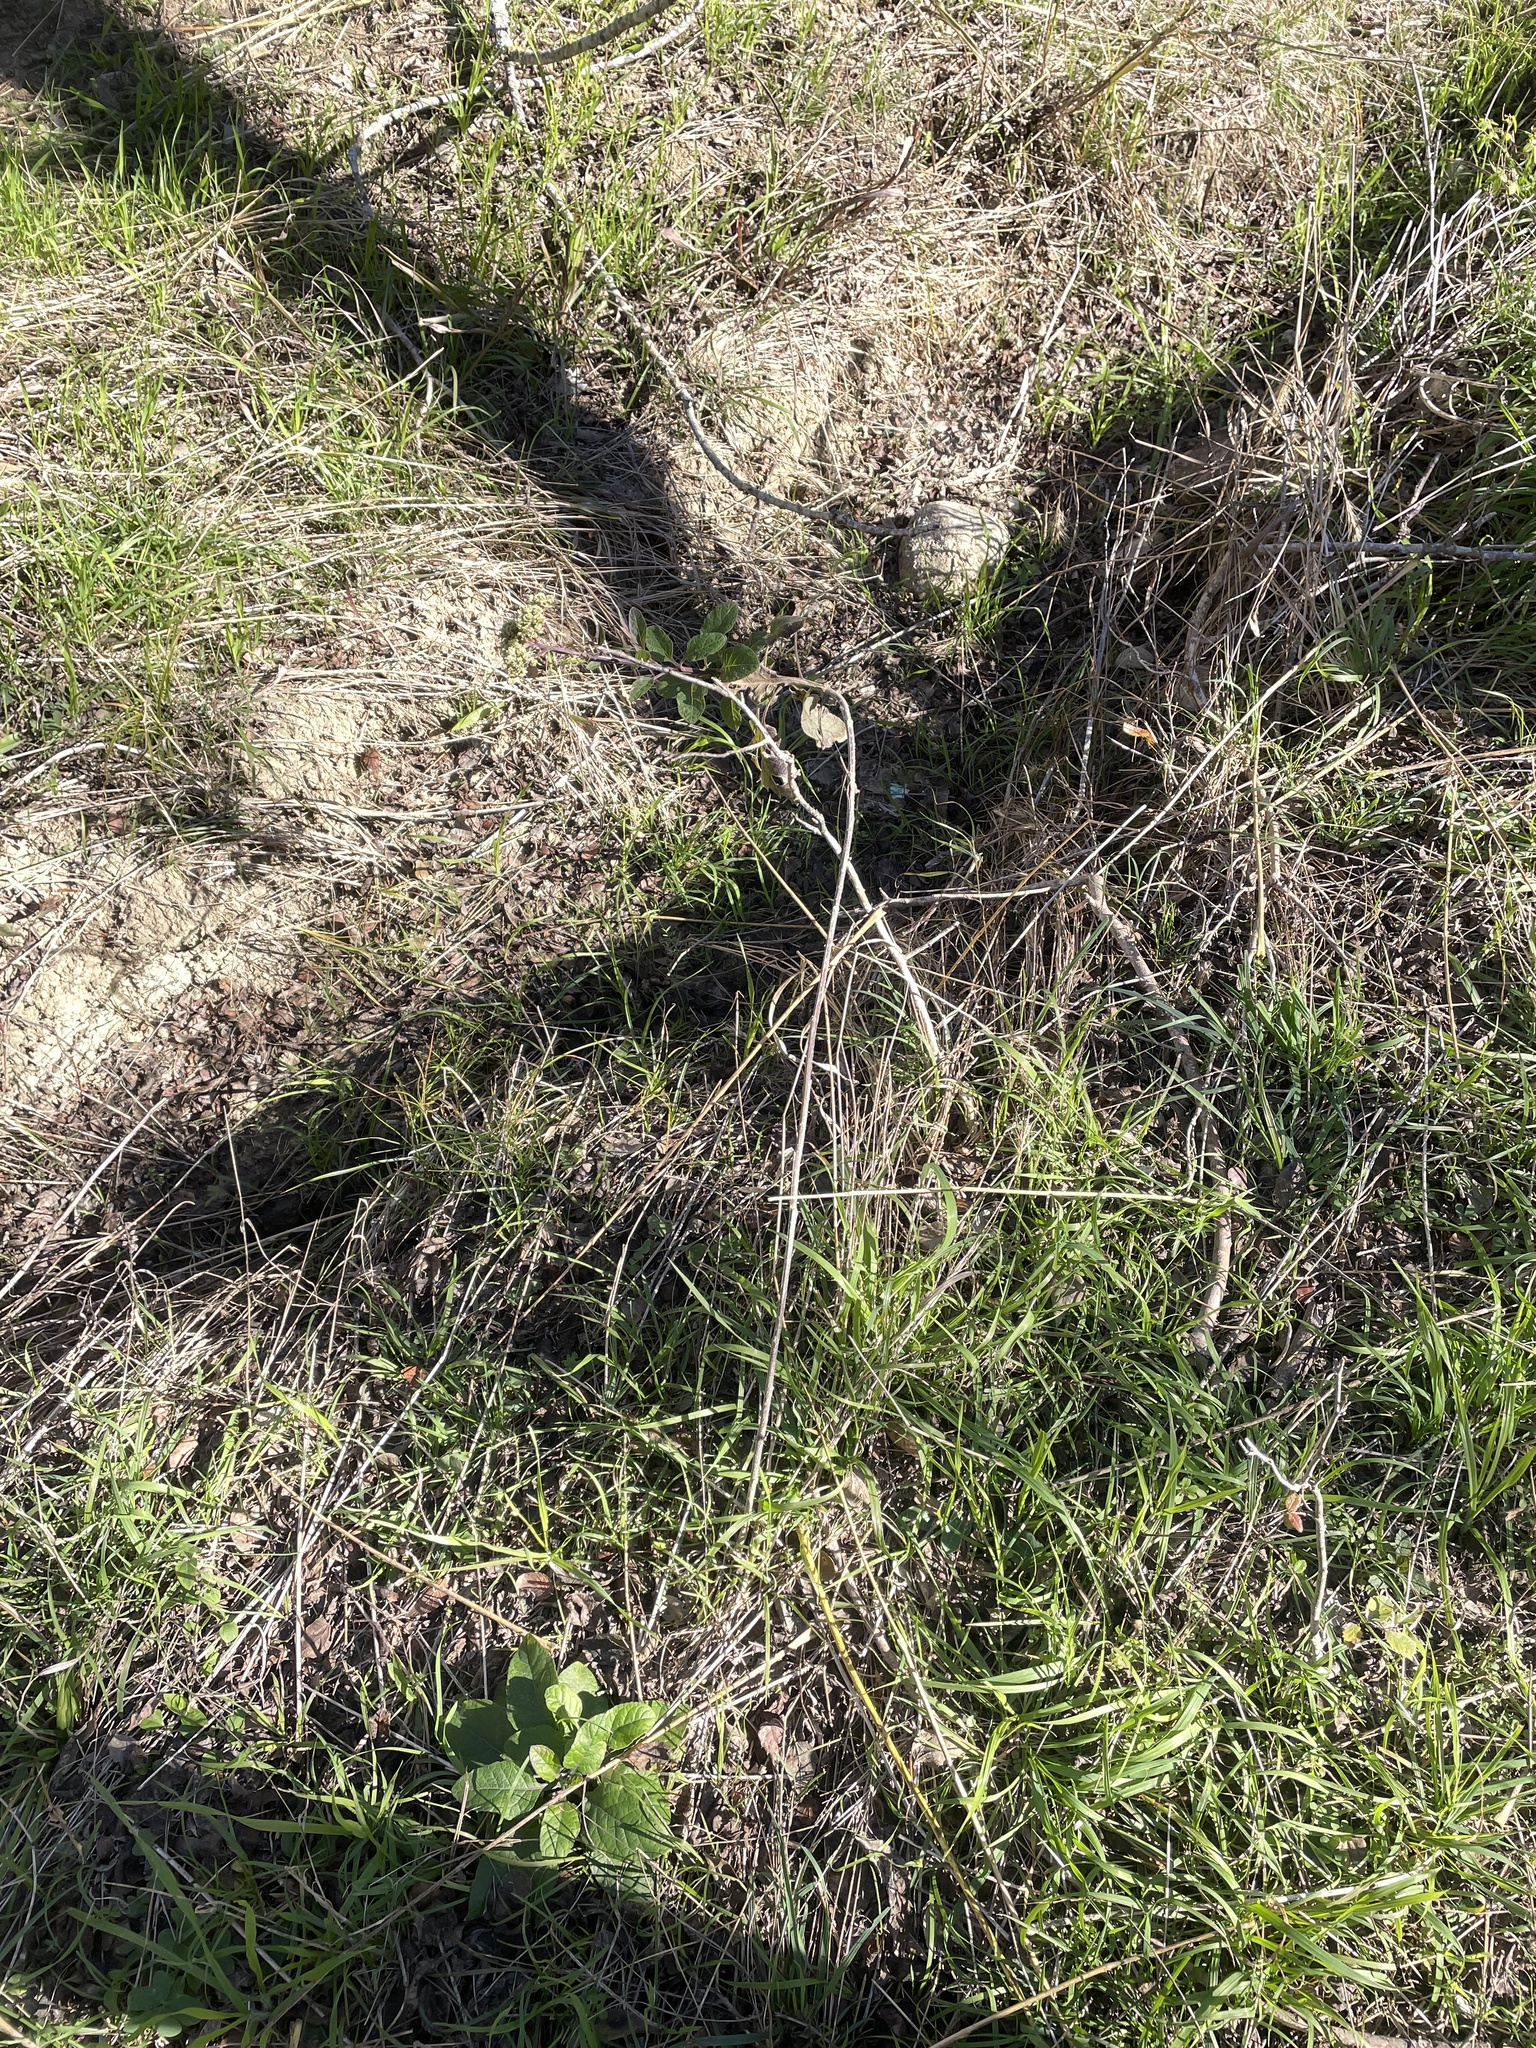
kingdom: Plantae
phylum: Tracheophyta
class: Magnoliopsida
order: Asterales
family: Asteraceae
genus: Verbesina
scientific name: Verbesina microptera
